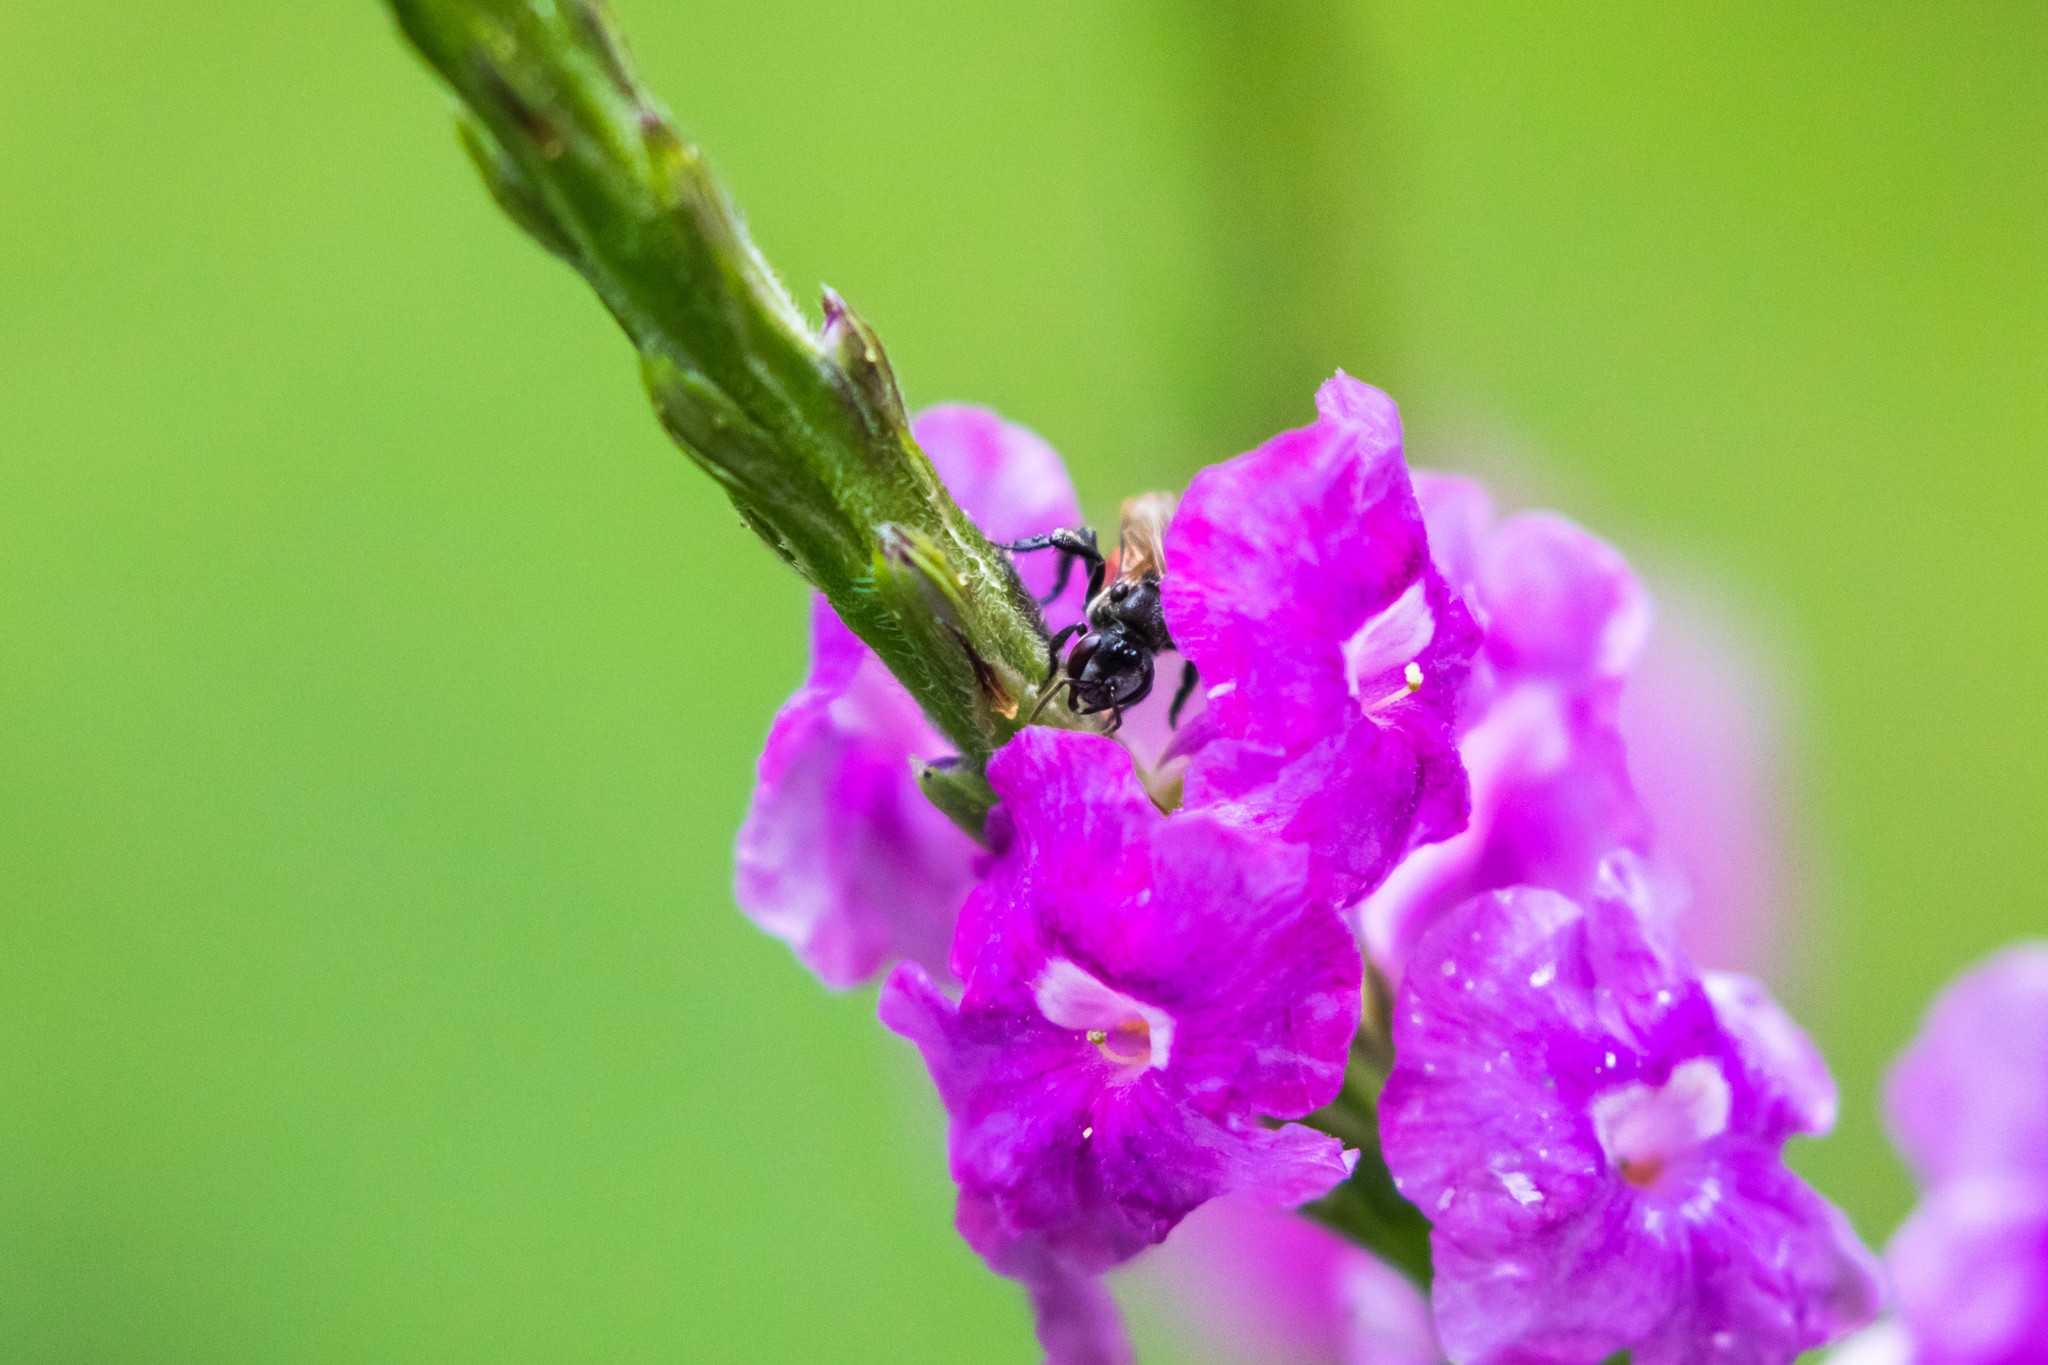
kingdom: Animalia
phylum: Arthropoda
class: Insecta
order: Hymenoptera
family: Apidae
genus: Trigona
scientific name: Trigona fulviventris
